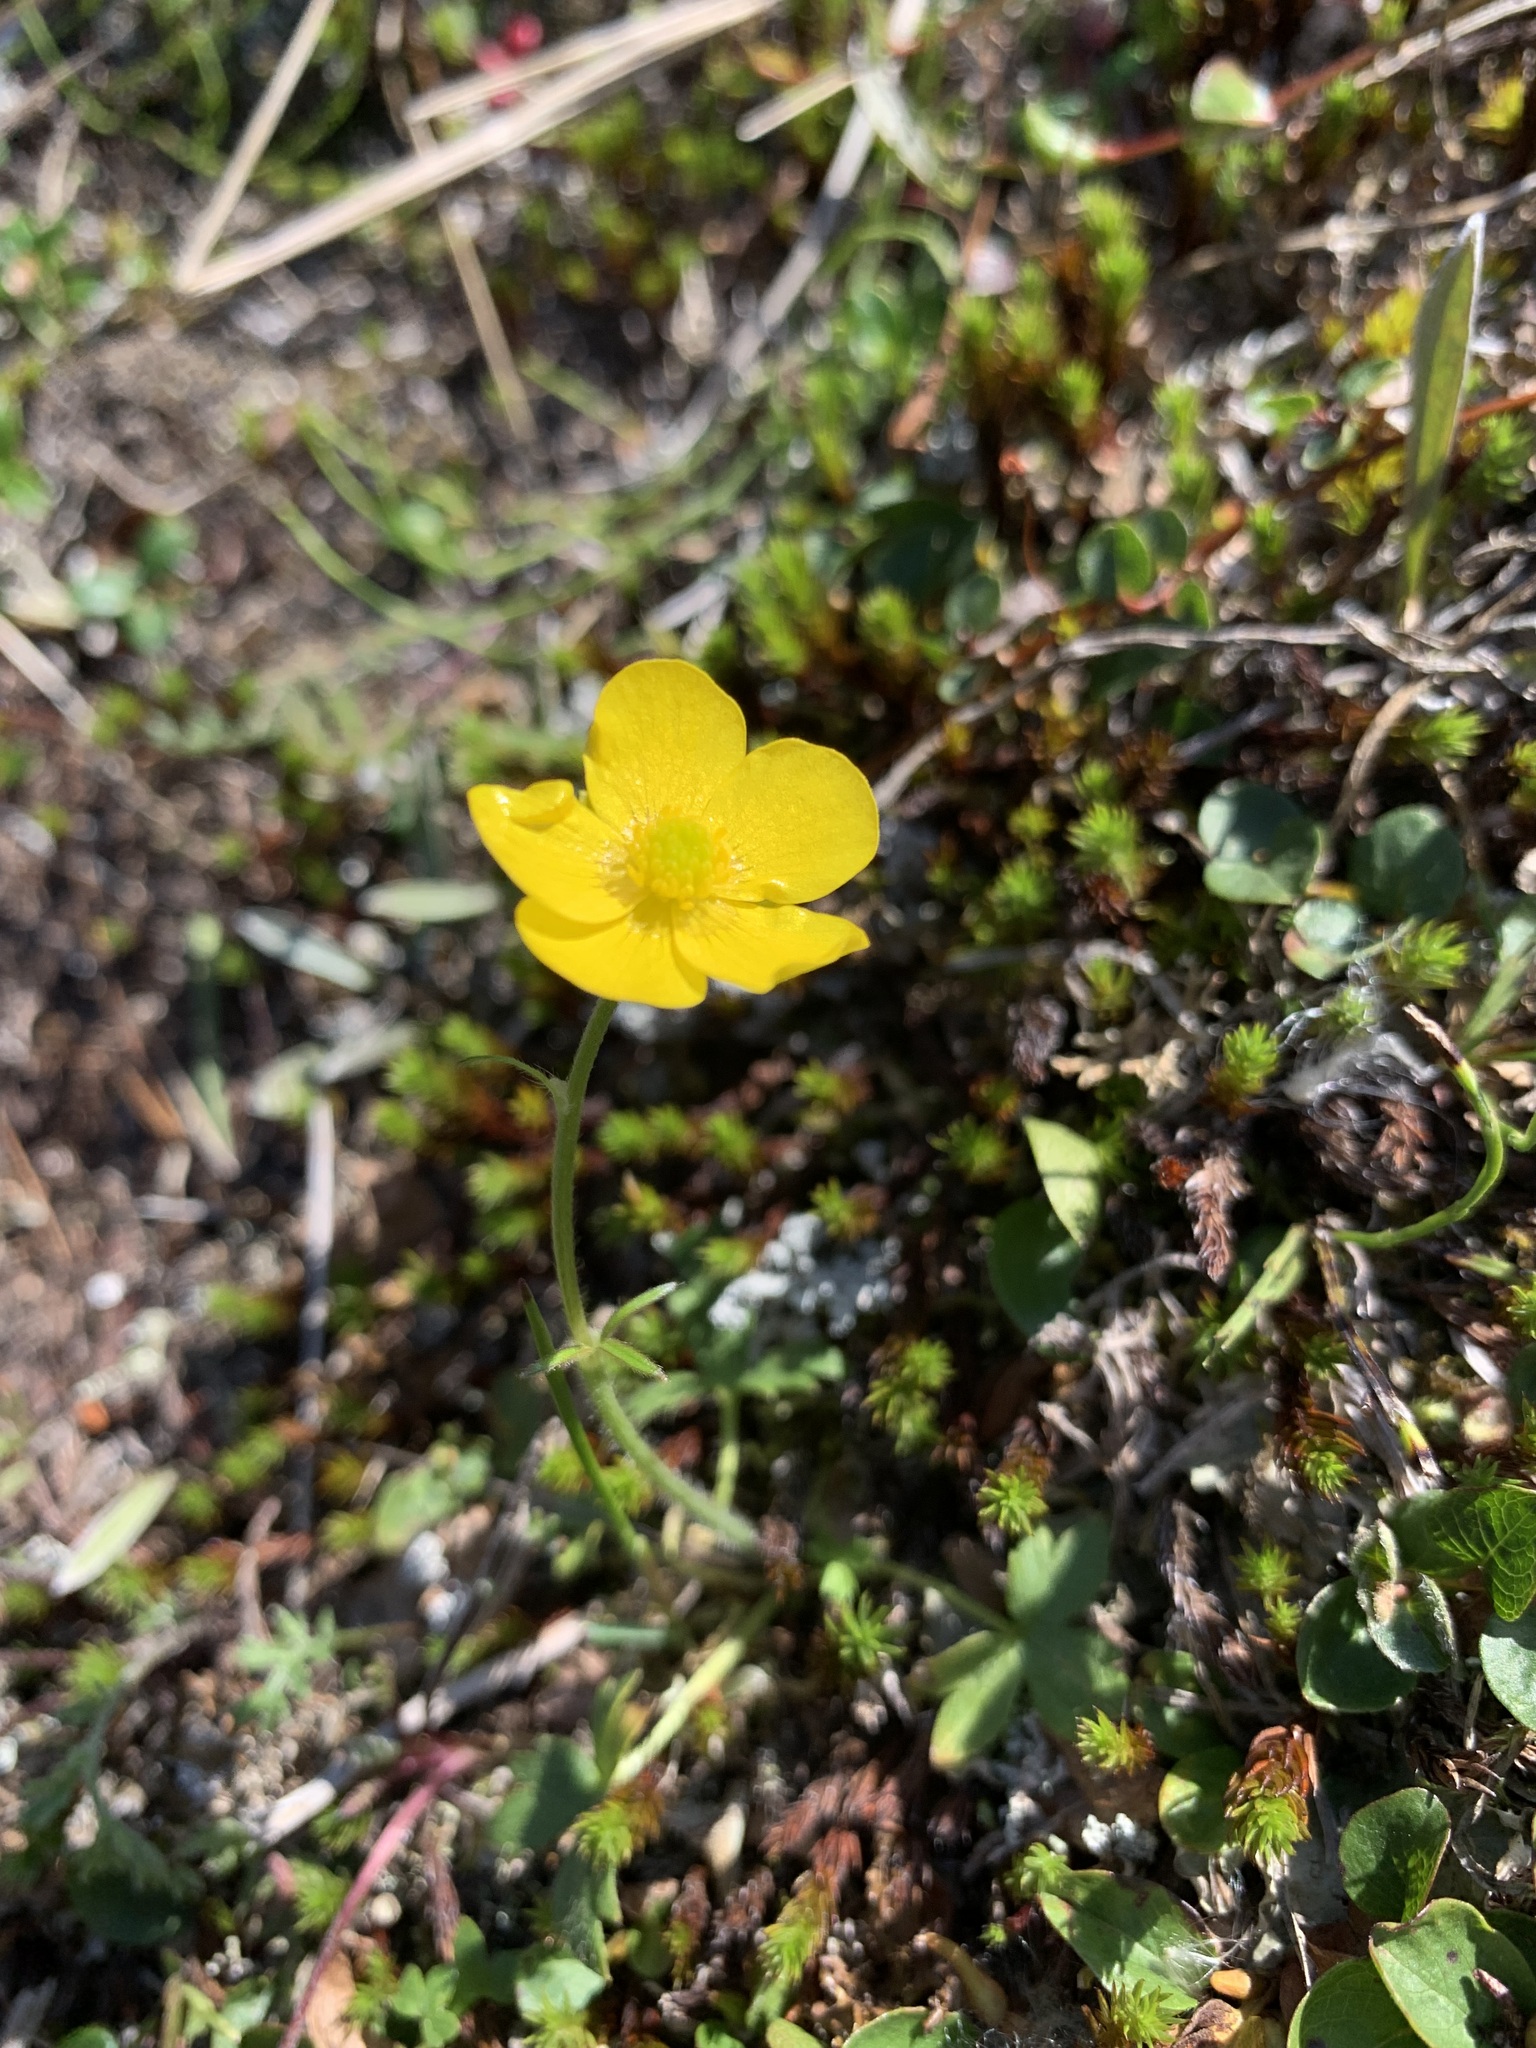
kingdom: Plantae
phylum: Tracheophyta
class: Magnoliopsida
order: Ranunculales
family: Ranunculaceae
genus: Ranunculus
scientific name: Ranunculus propinquus
